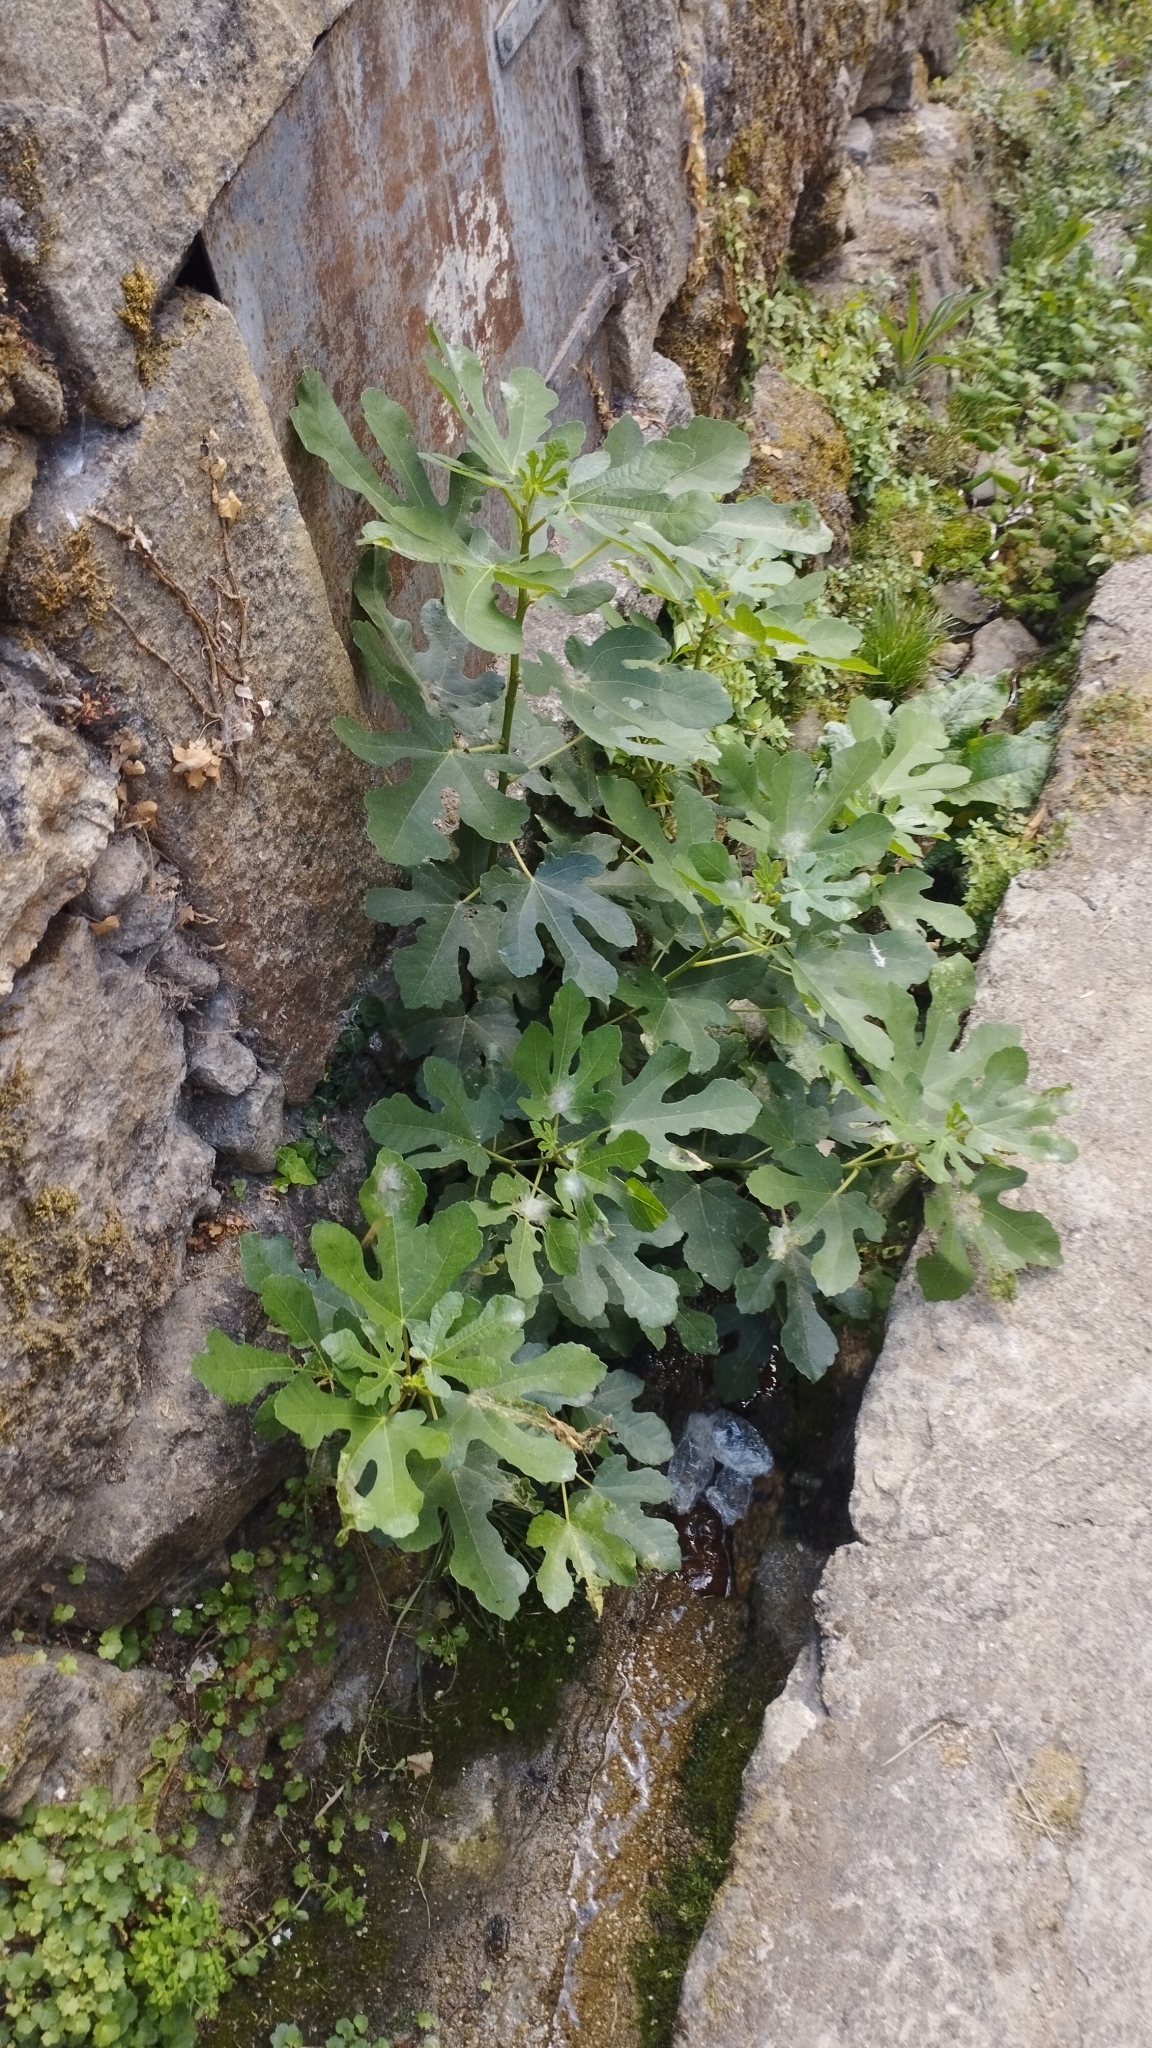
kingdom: Plantae
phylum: Tracheophyta
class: Magnoliopsida
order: Rosales
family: Moraceae
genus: Ficus
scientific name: Ficus carica
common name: Fig
